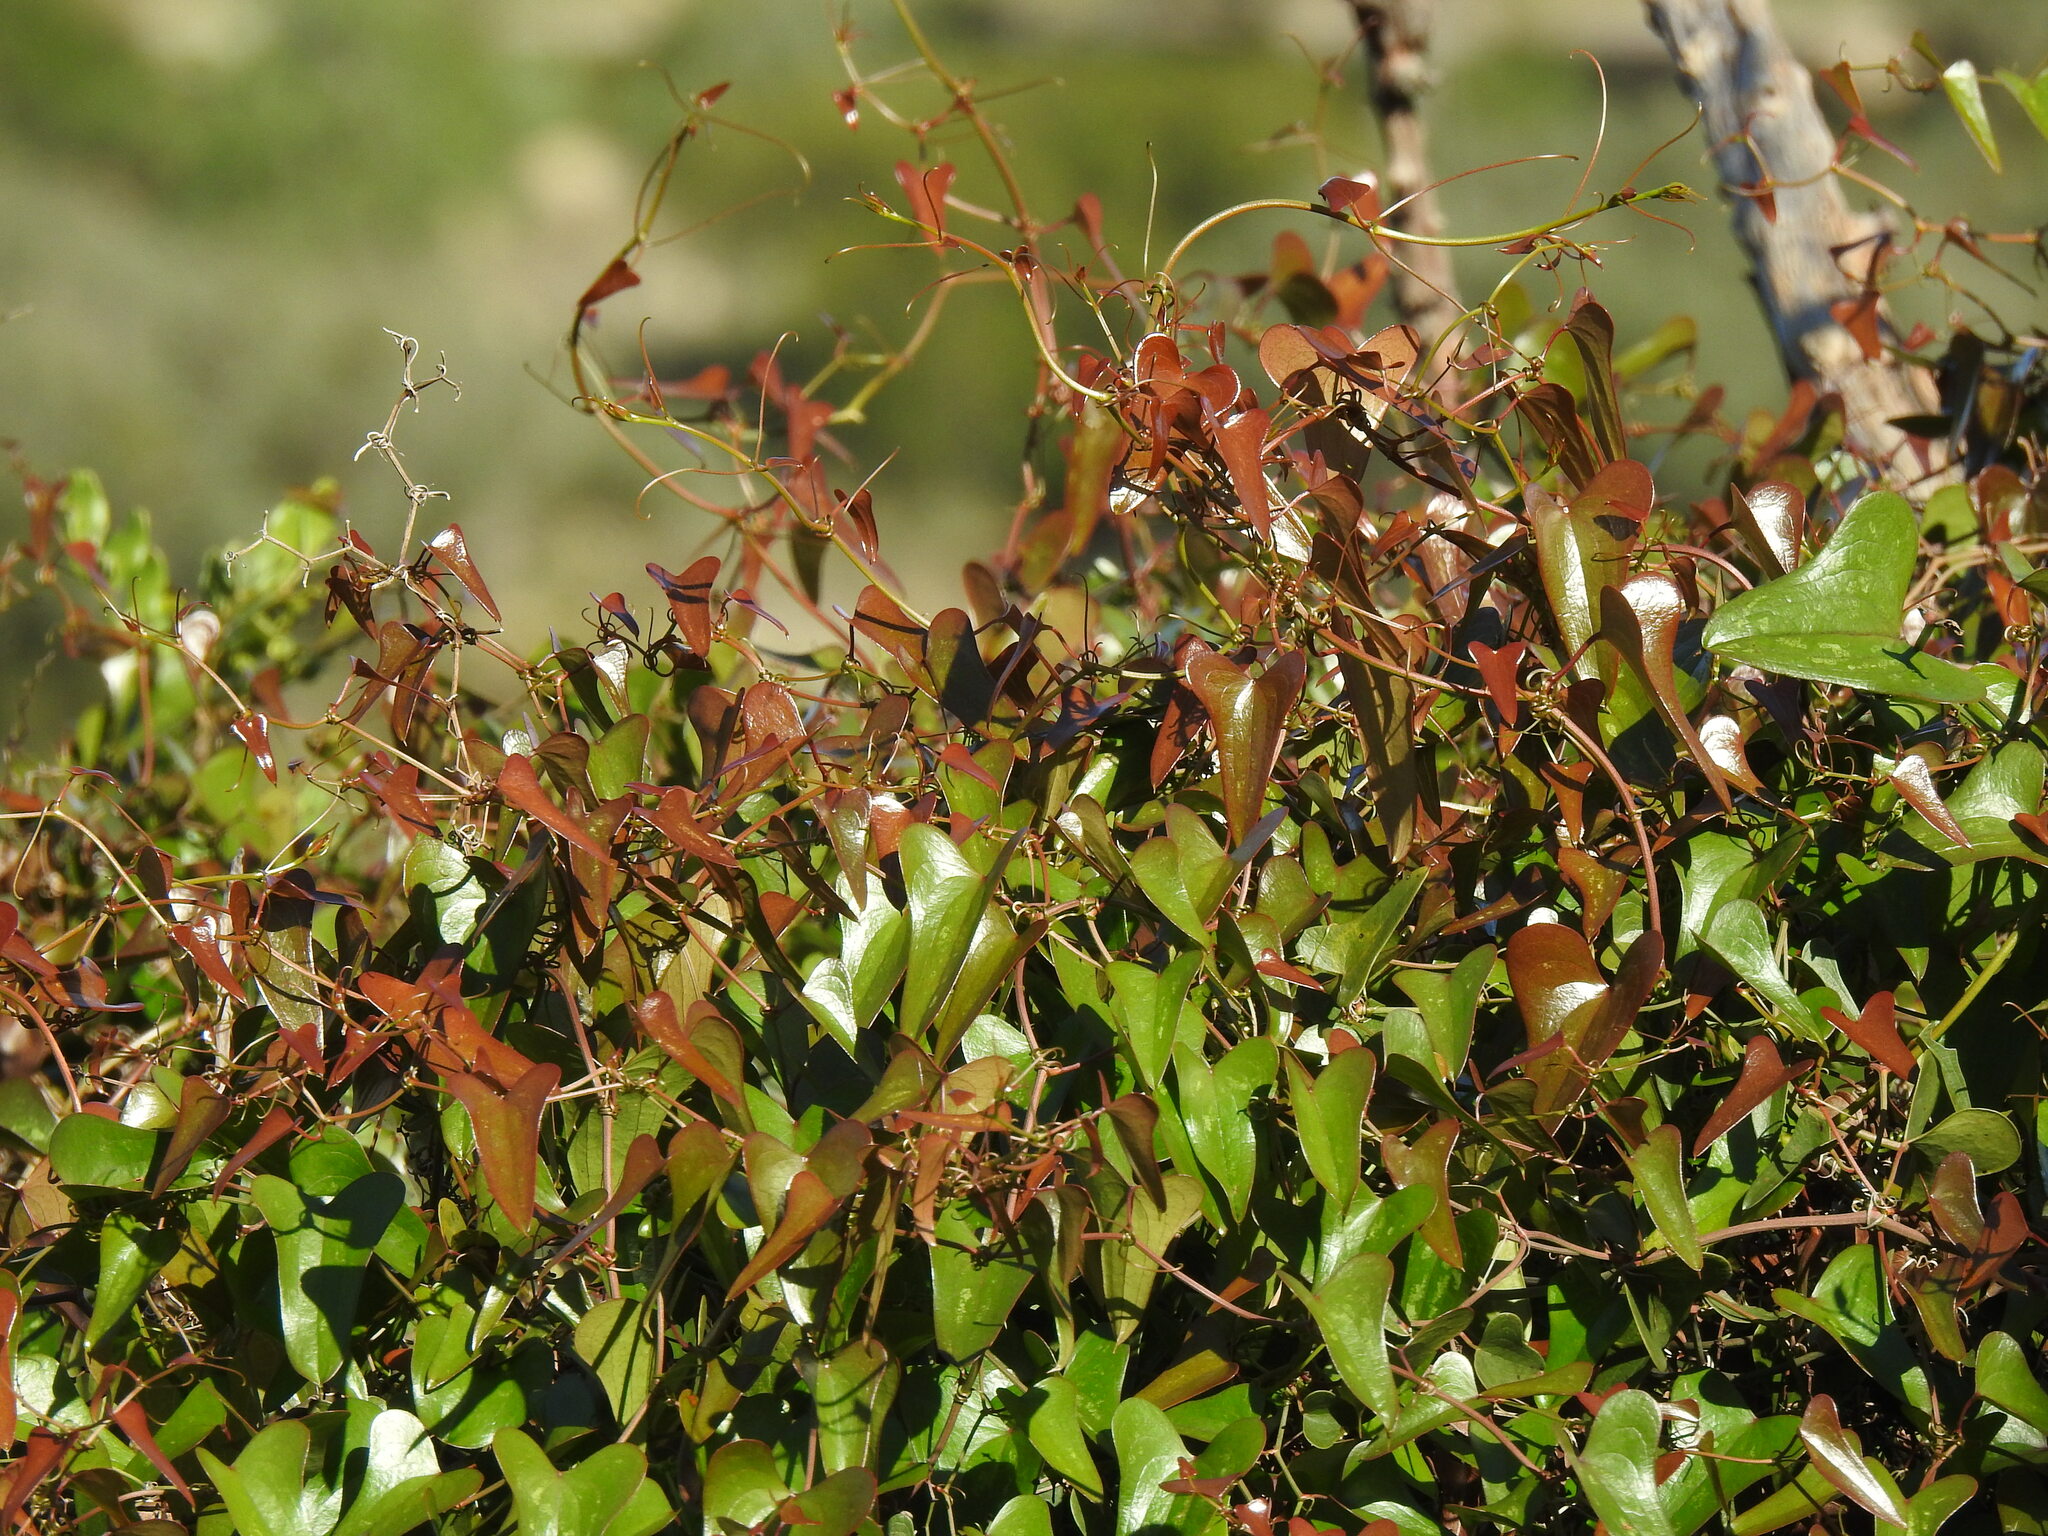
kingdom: Plantae
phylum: Tracheophyta
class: Liliopsida
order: Liliales
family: Smilacaceae
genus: Smilax
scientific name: Smilax aspera
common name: Common smilax
